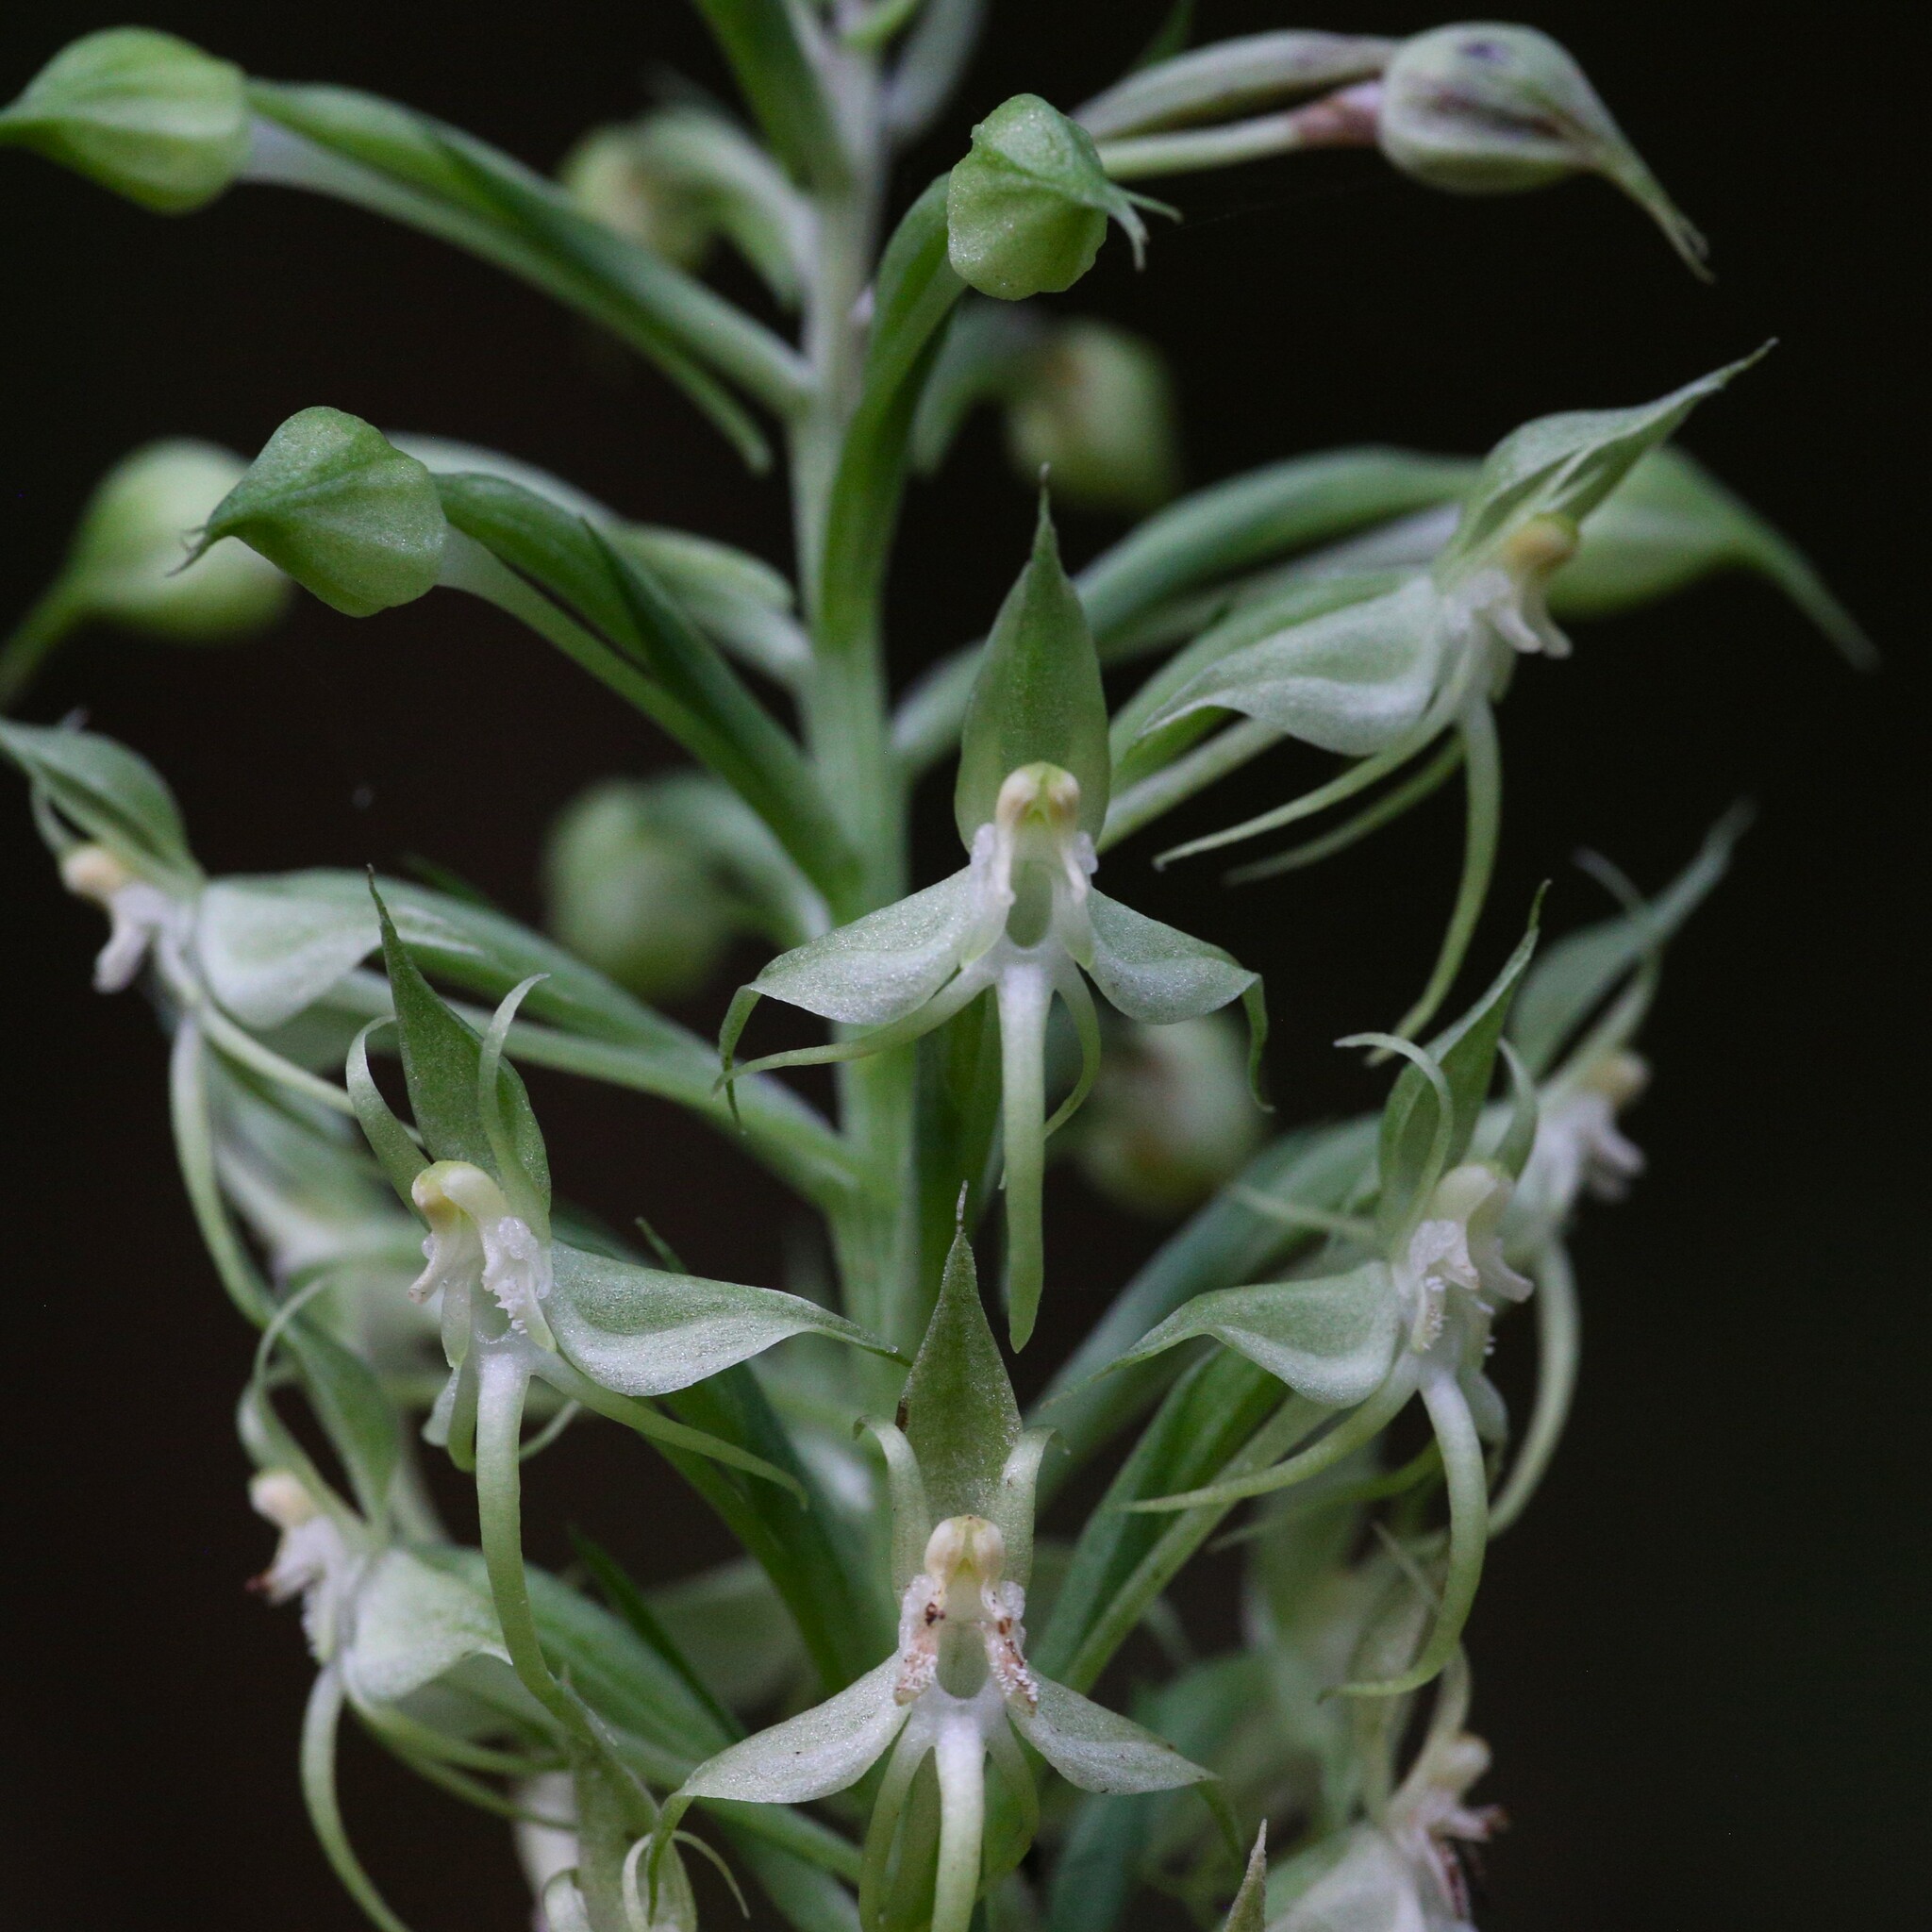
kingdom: Plantae
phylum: Tracheophyta
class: Liliopsida
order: Asparagales
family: Orchidaceae
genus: Habenaria
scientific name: Habenaria stenopetala
